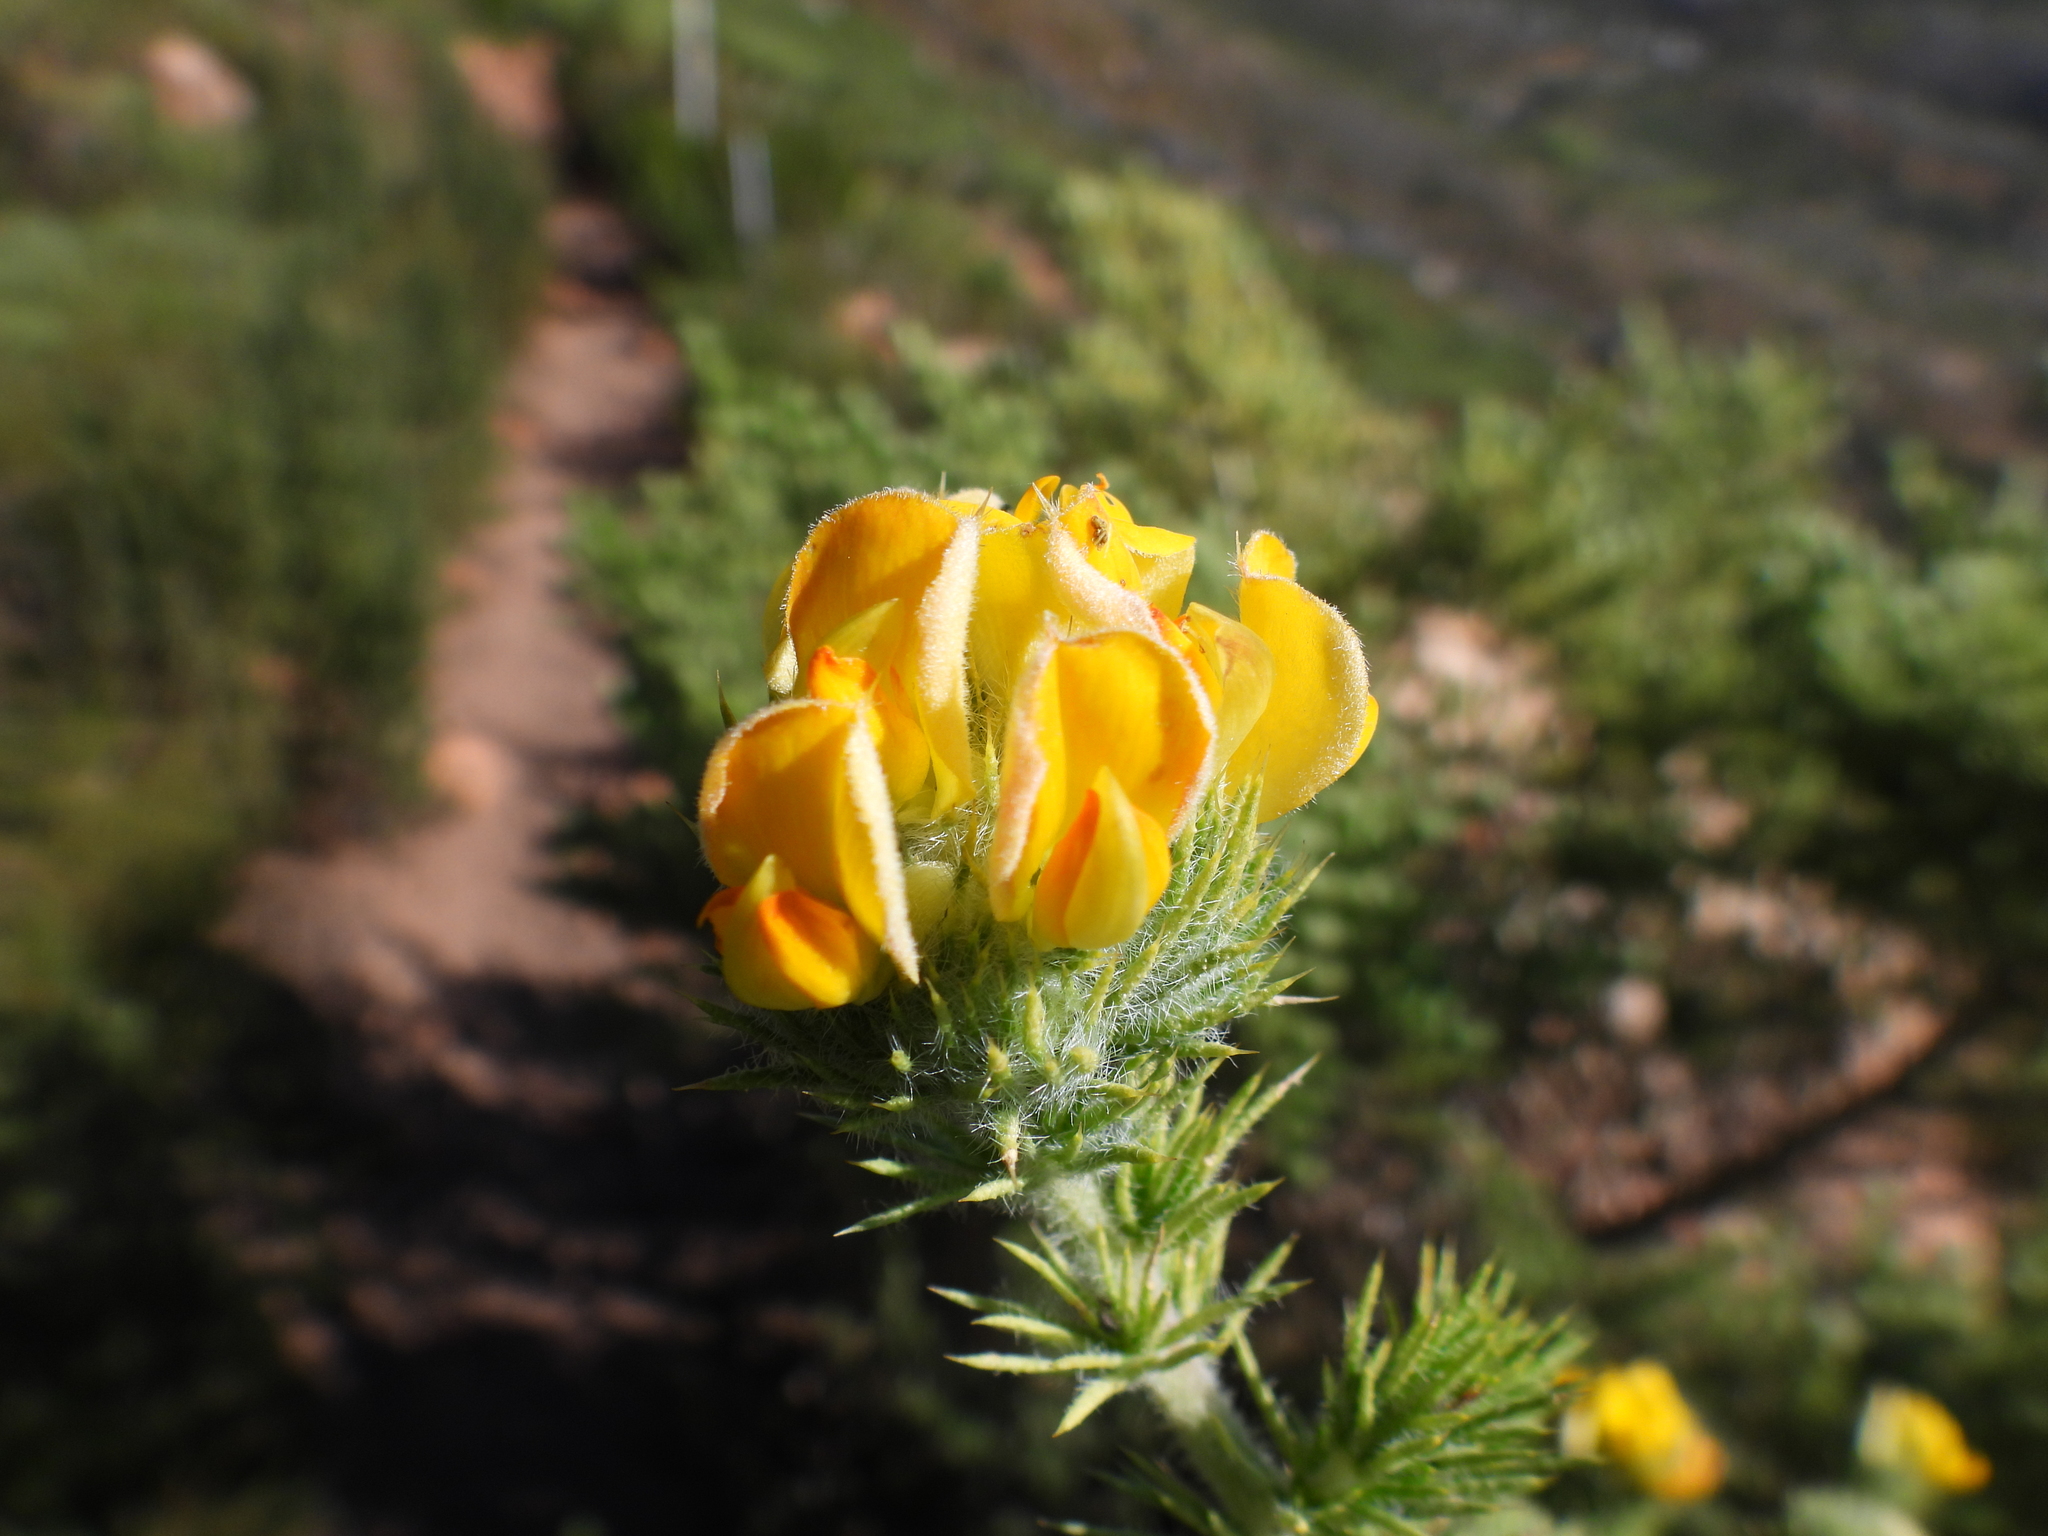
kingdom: Plantae
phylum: Tracheophyta
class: Magnoliopsida
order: Fabales
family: Fabaceae
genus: Aspalathus
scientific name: Aspalathus chenopoda
